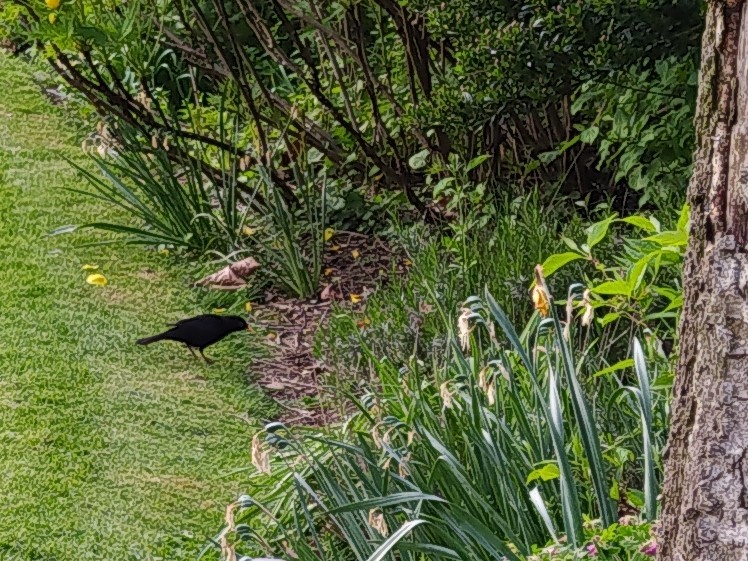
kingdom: Animalia
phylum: Chordata
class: Aves
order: Passeriformes
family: Turdidae
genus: Turdus
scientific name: Turdus merula
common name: Common blackbird
